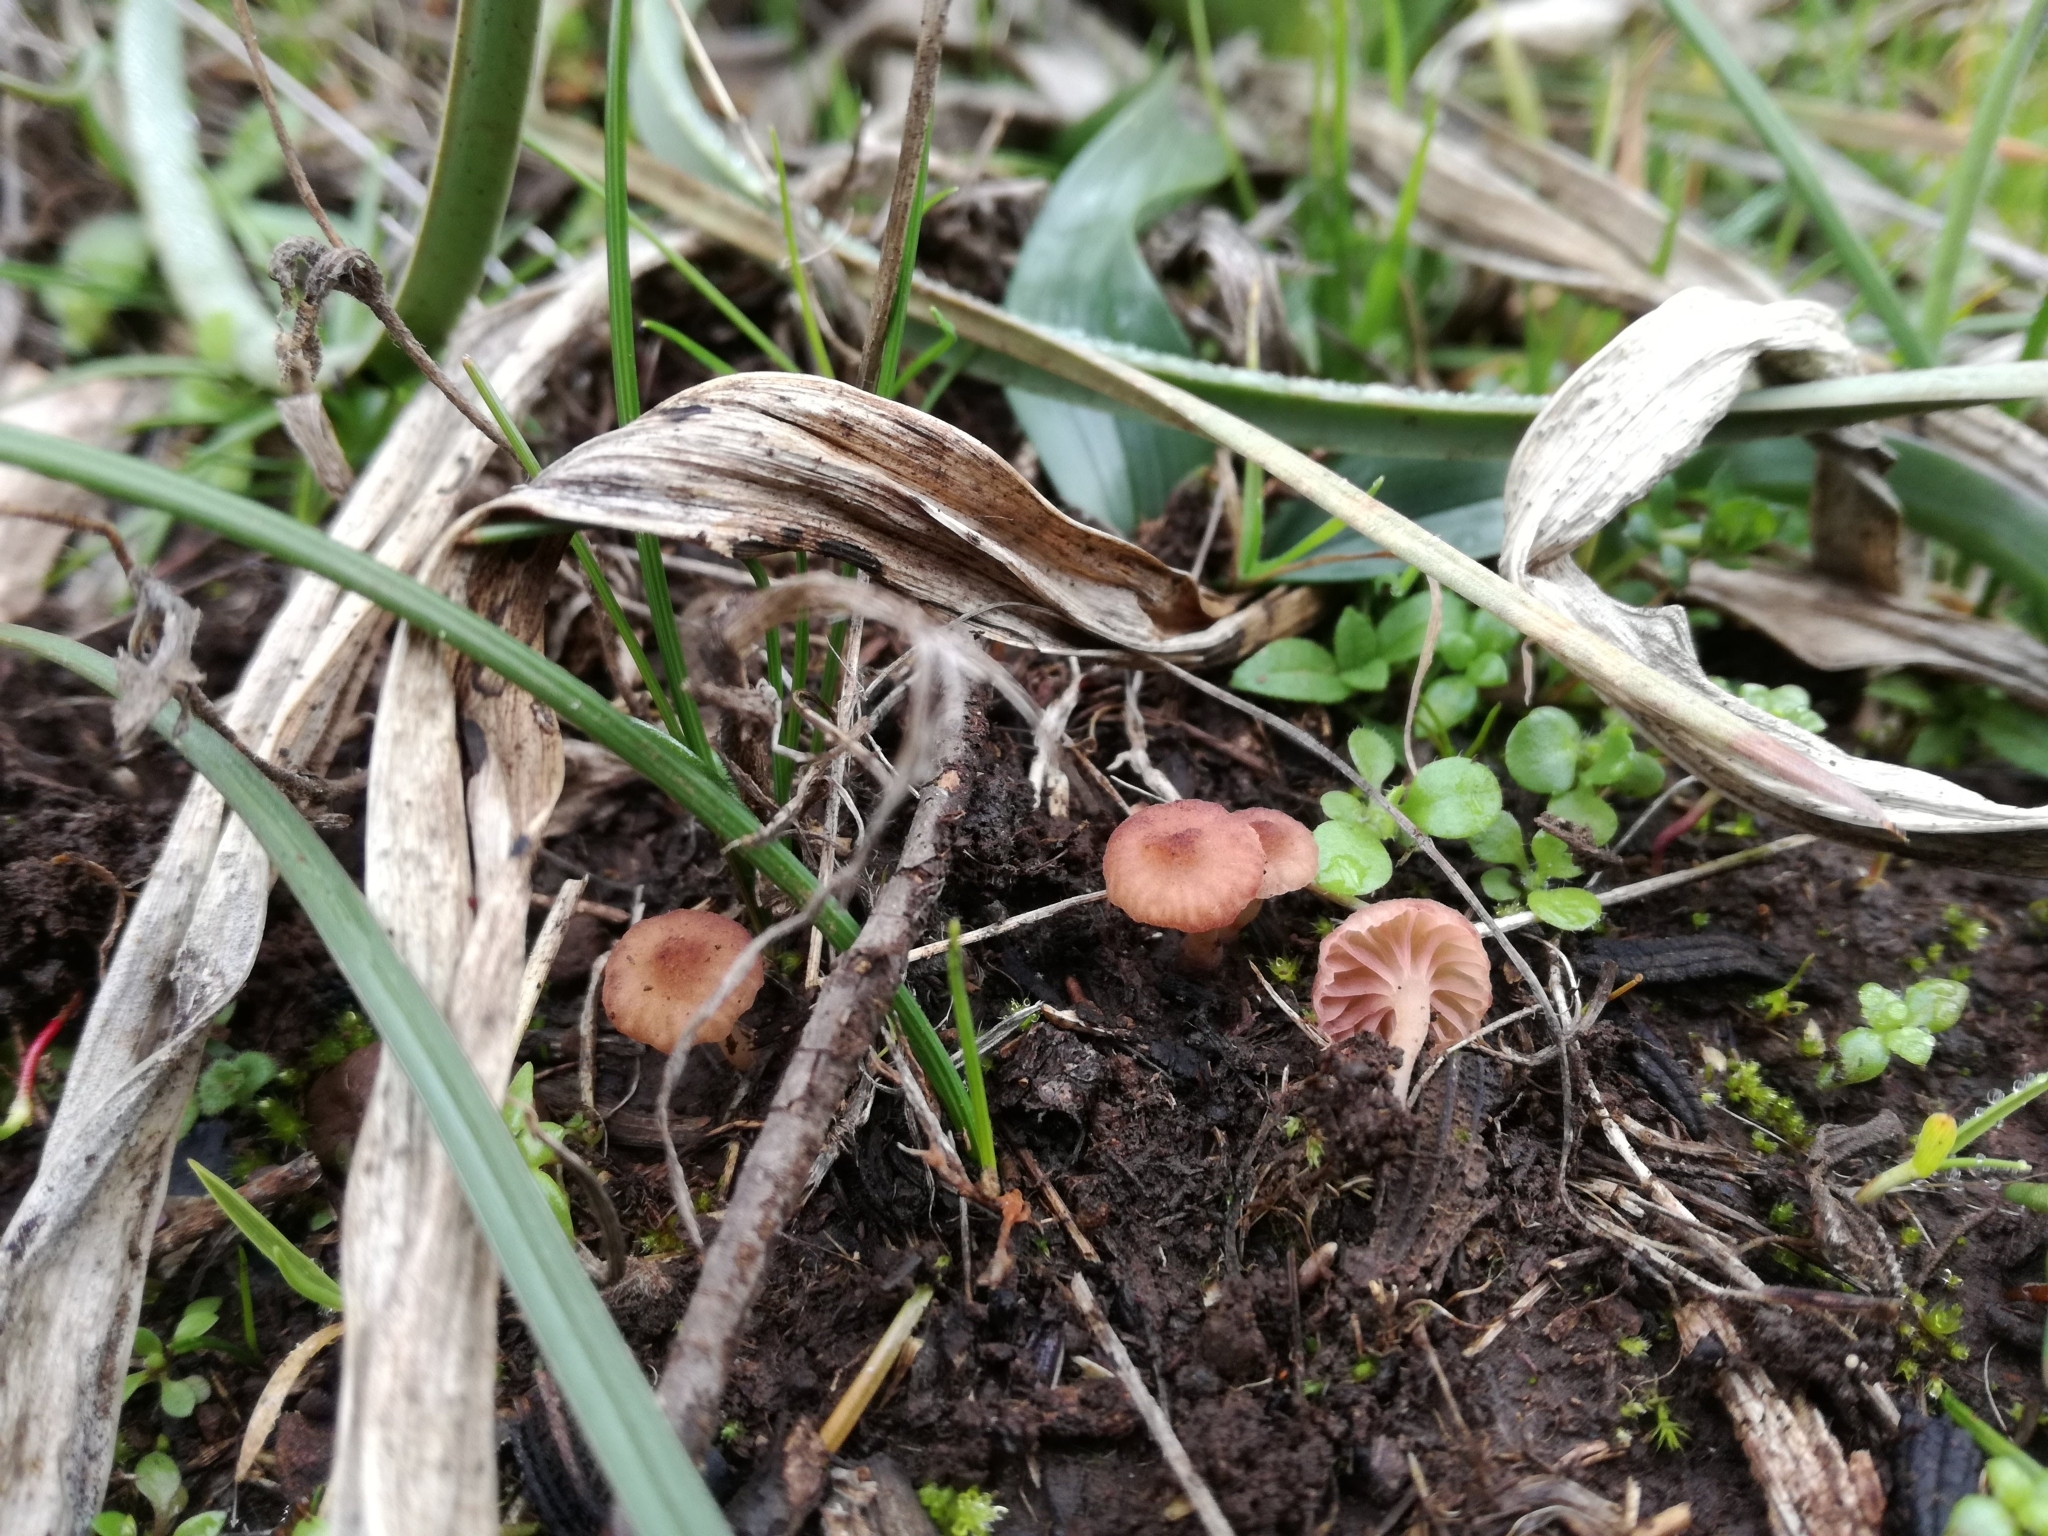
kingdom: Fungi
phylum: Basidiomycota
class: Agaricomycetes
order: Hymenochaetales
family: Rickenellaceae
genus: Contumyces
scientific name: Contumyces rosellus
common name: Rosy navel
